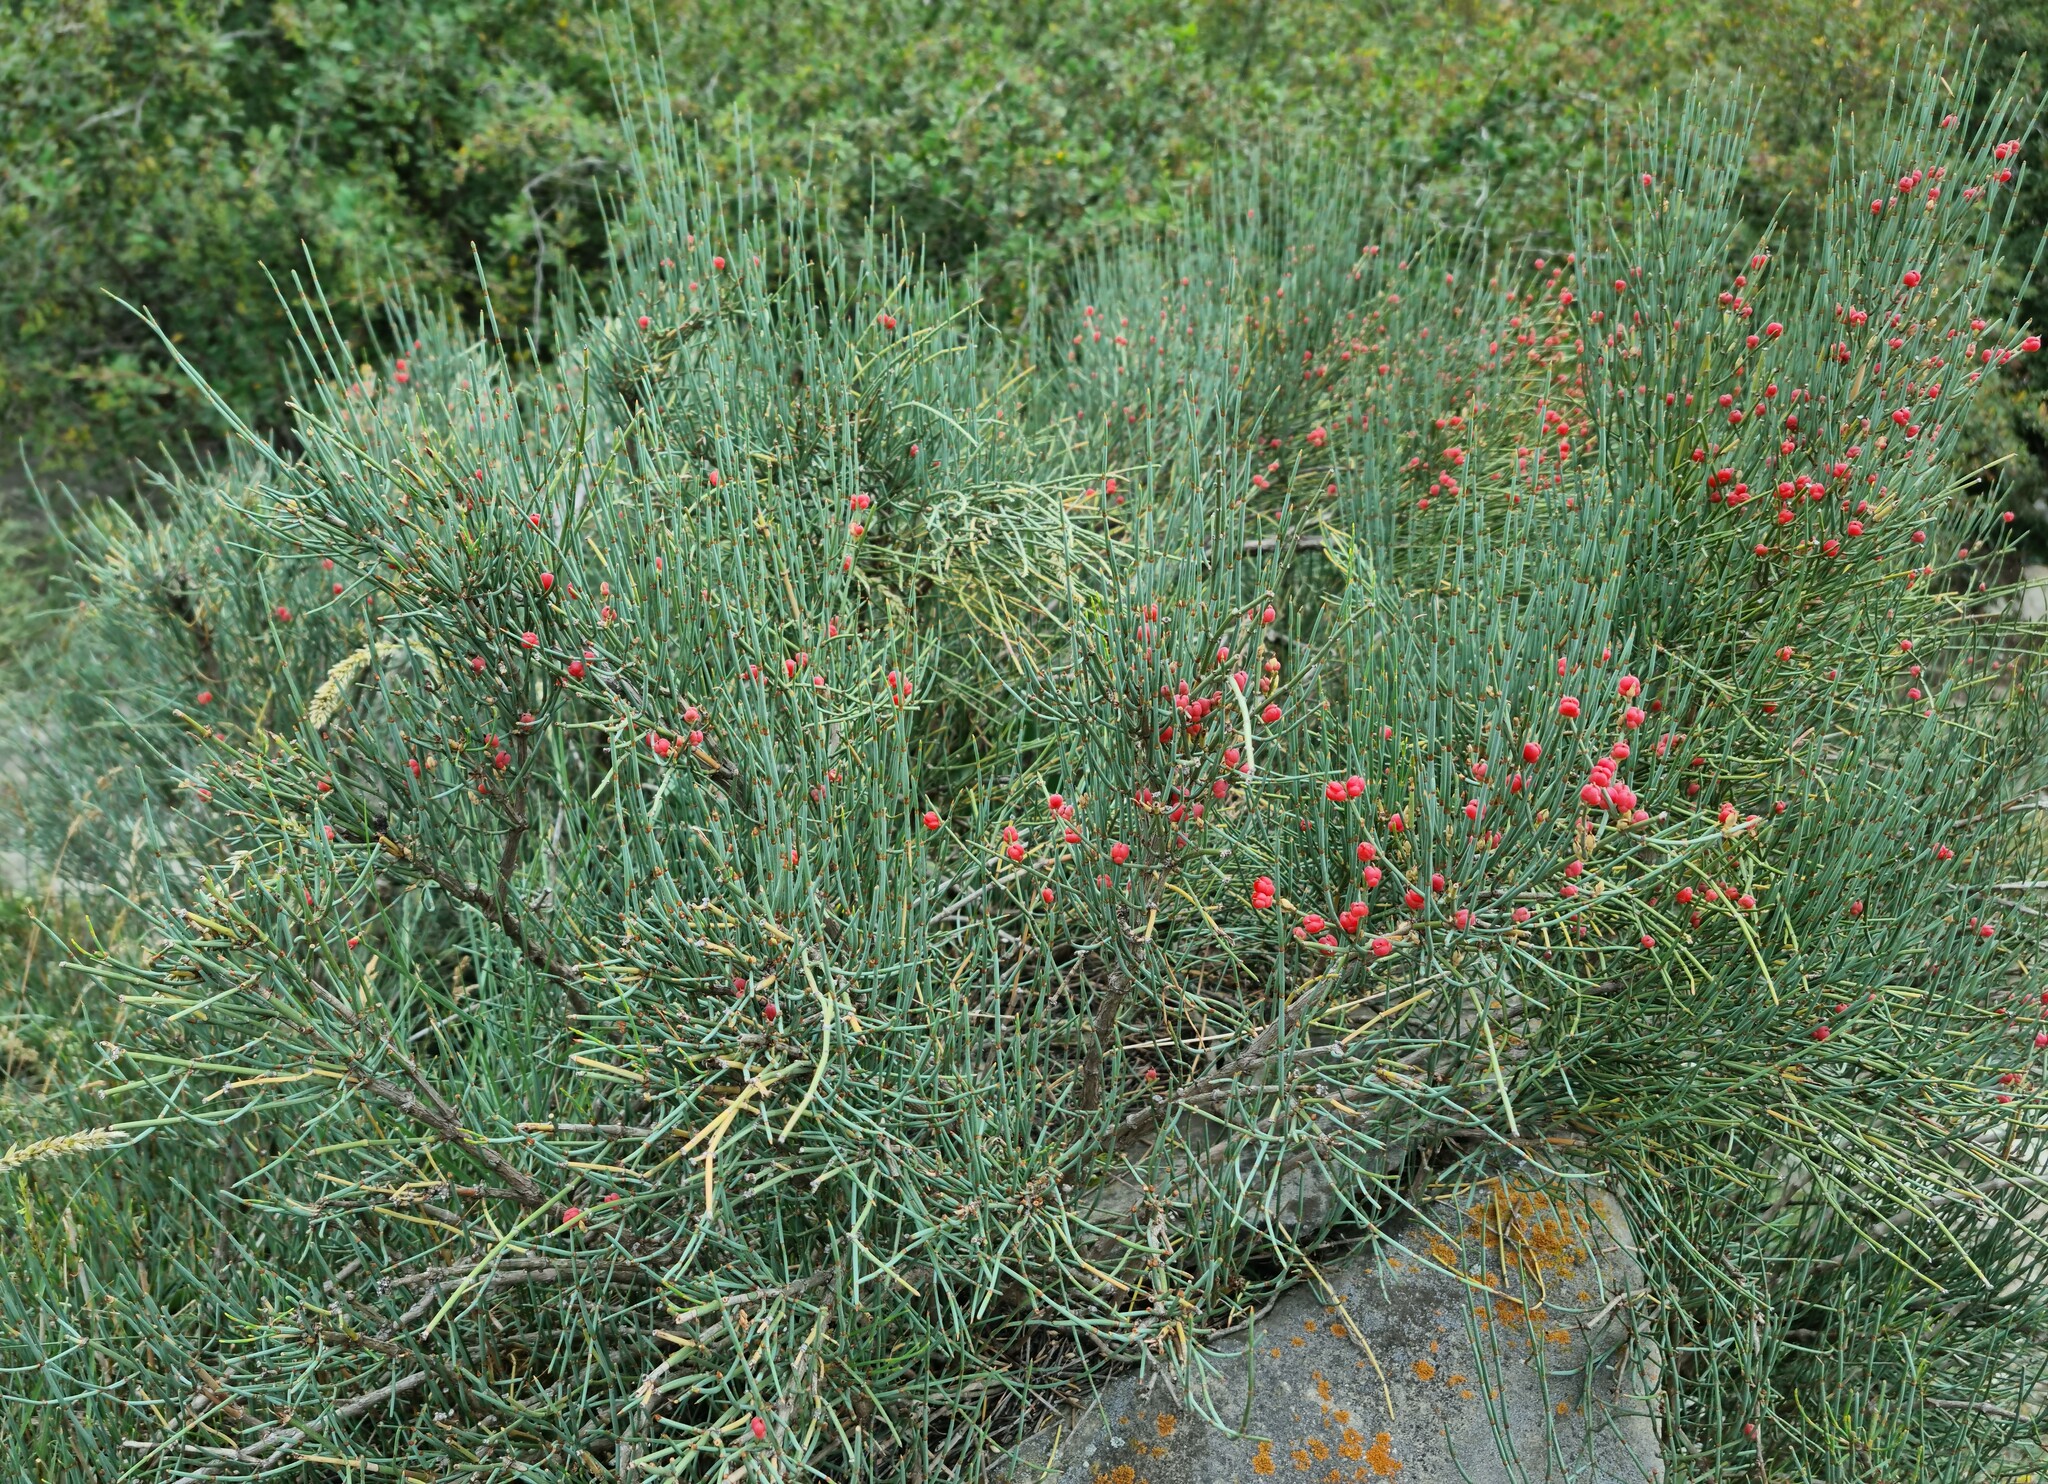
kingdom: Plantae
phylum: Tracheophyta
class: Gnetopsida
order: Ephedrales
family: Ephedraceae
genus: Ephedra
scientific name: Ephedra distachya
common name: Sea grape
